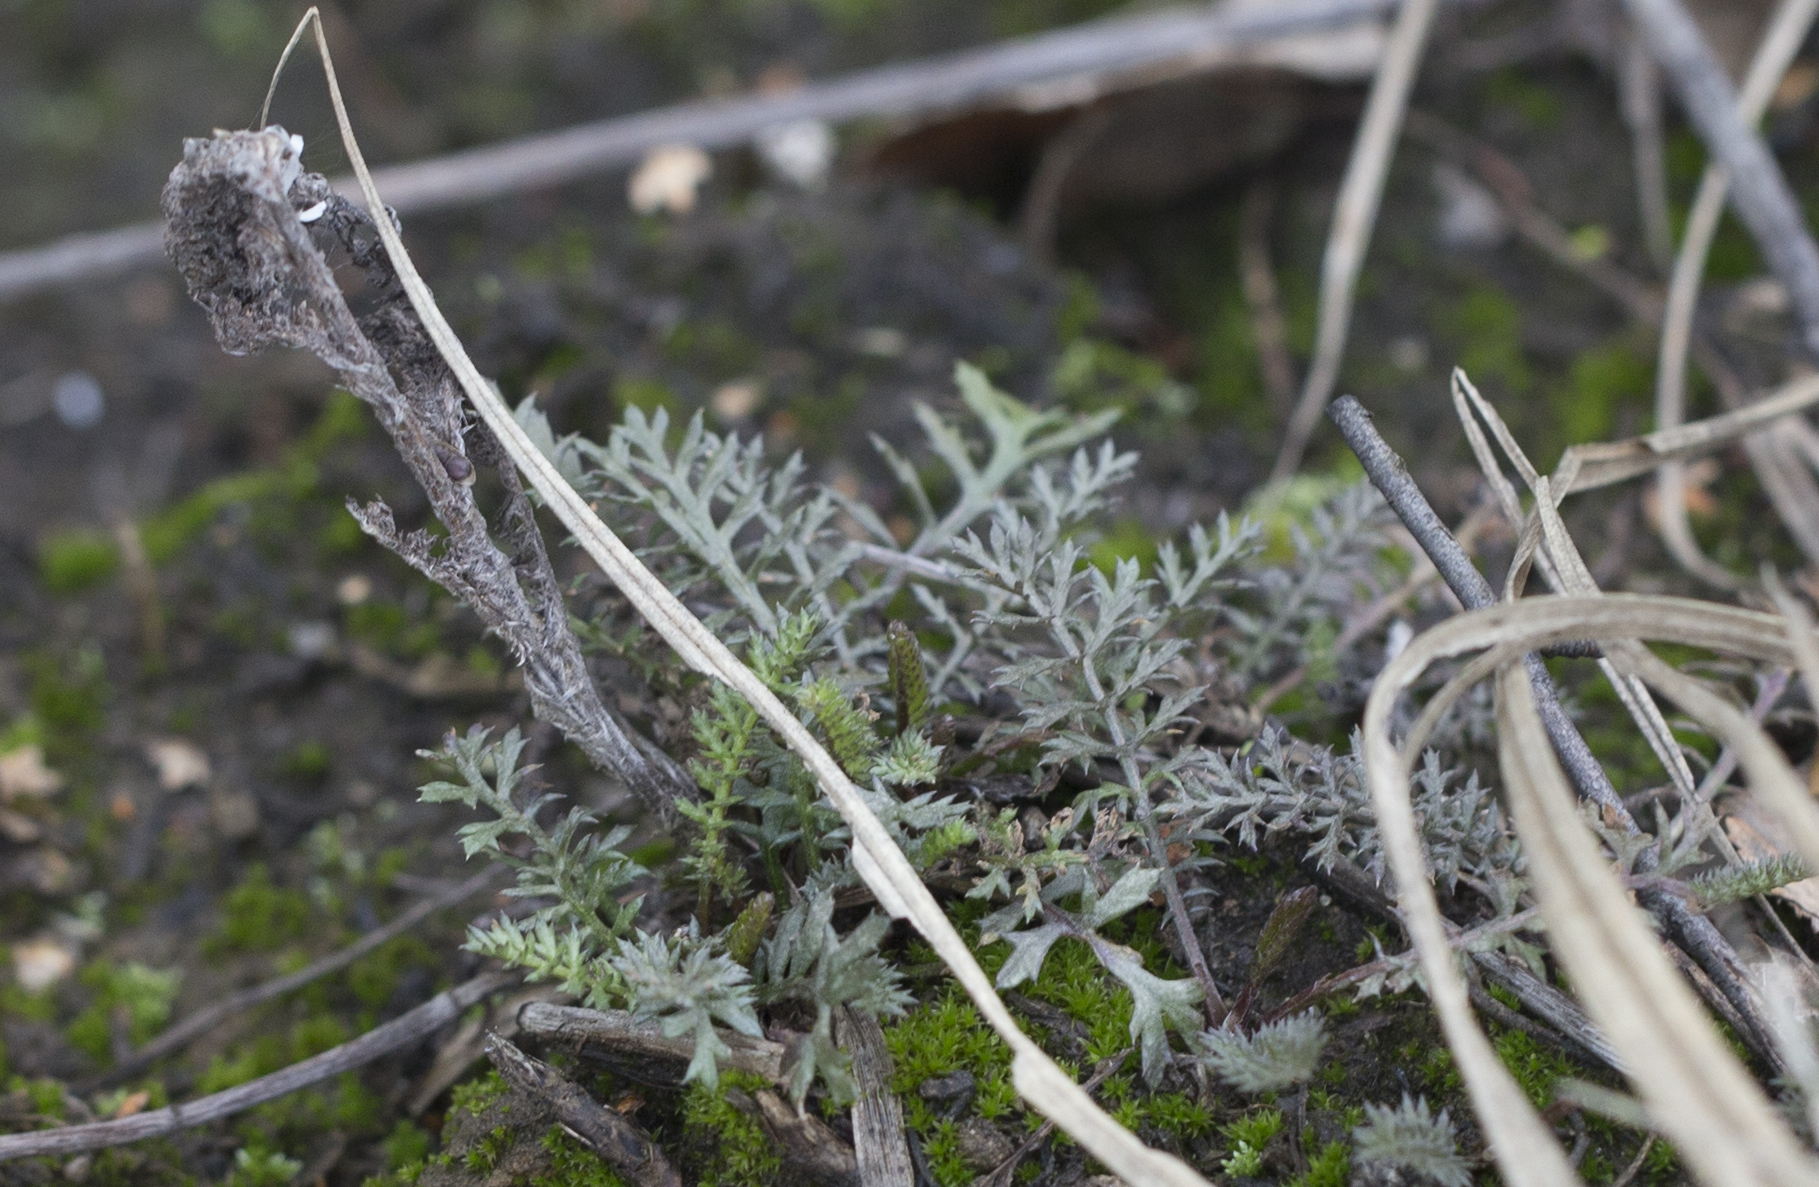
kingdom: Plantae
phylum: Tracheophyta
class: Magnoliopsida
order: Asterales
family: Asteraceae
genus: Achillea
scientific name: Achillea millefolium
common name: Yarrow
